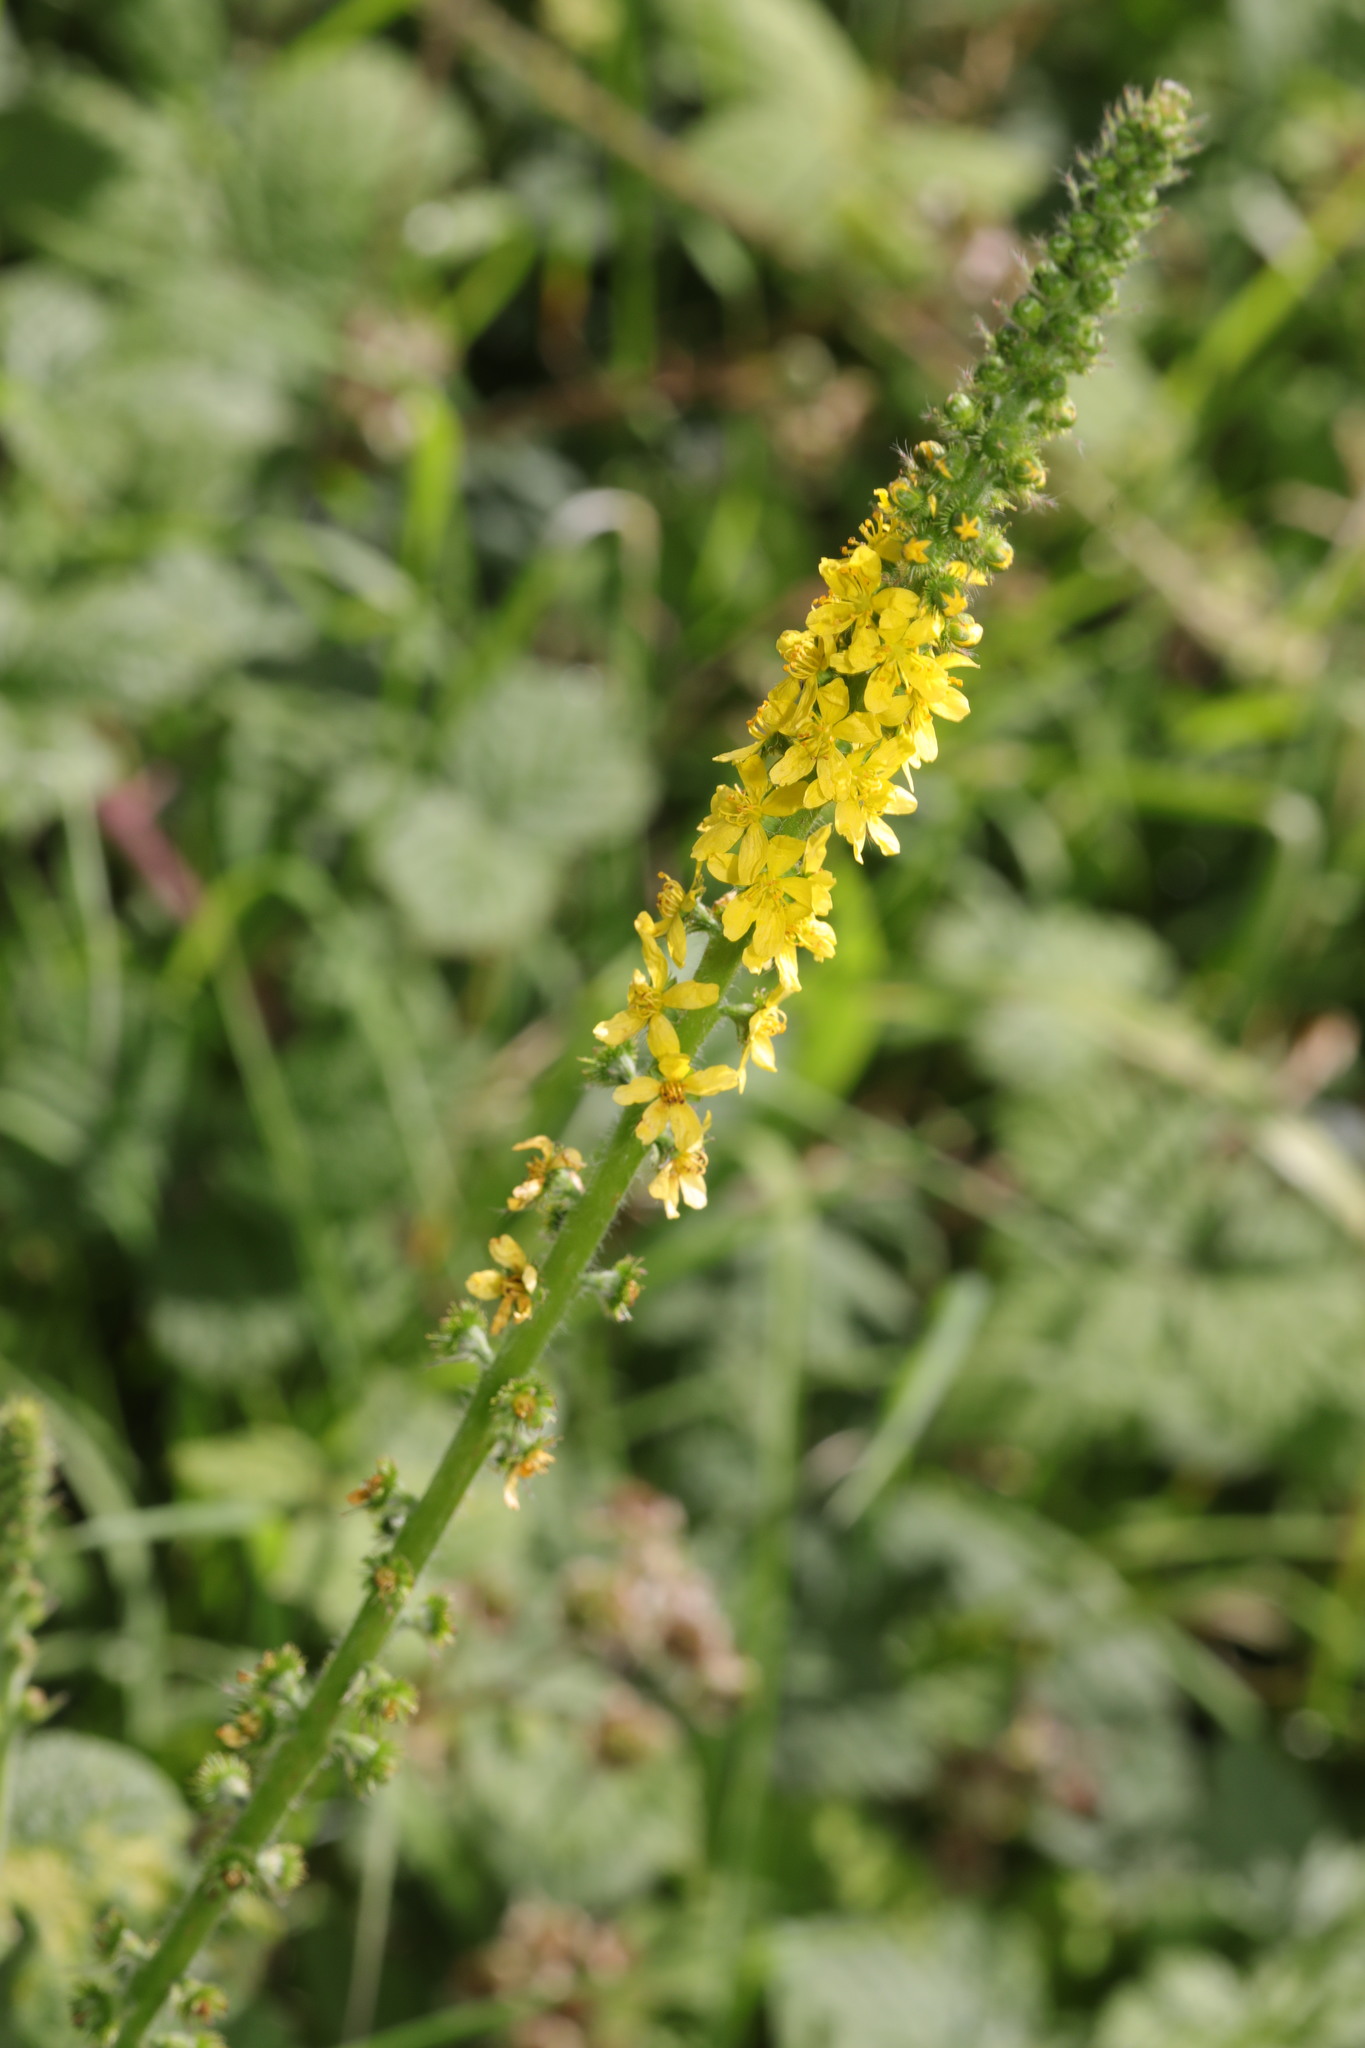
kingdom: Plantae
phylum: Tracheophyta
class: Magnoliopsida
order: Rosales
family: Rosaceae
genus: Agrimonia
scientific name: Agrimonia eupatoria
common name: Agrimony
